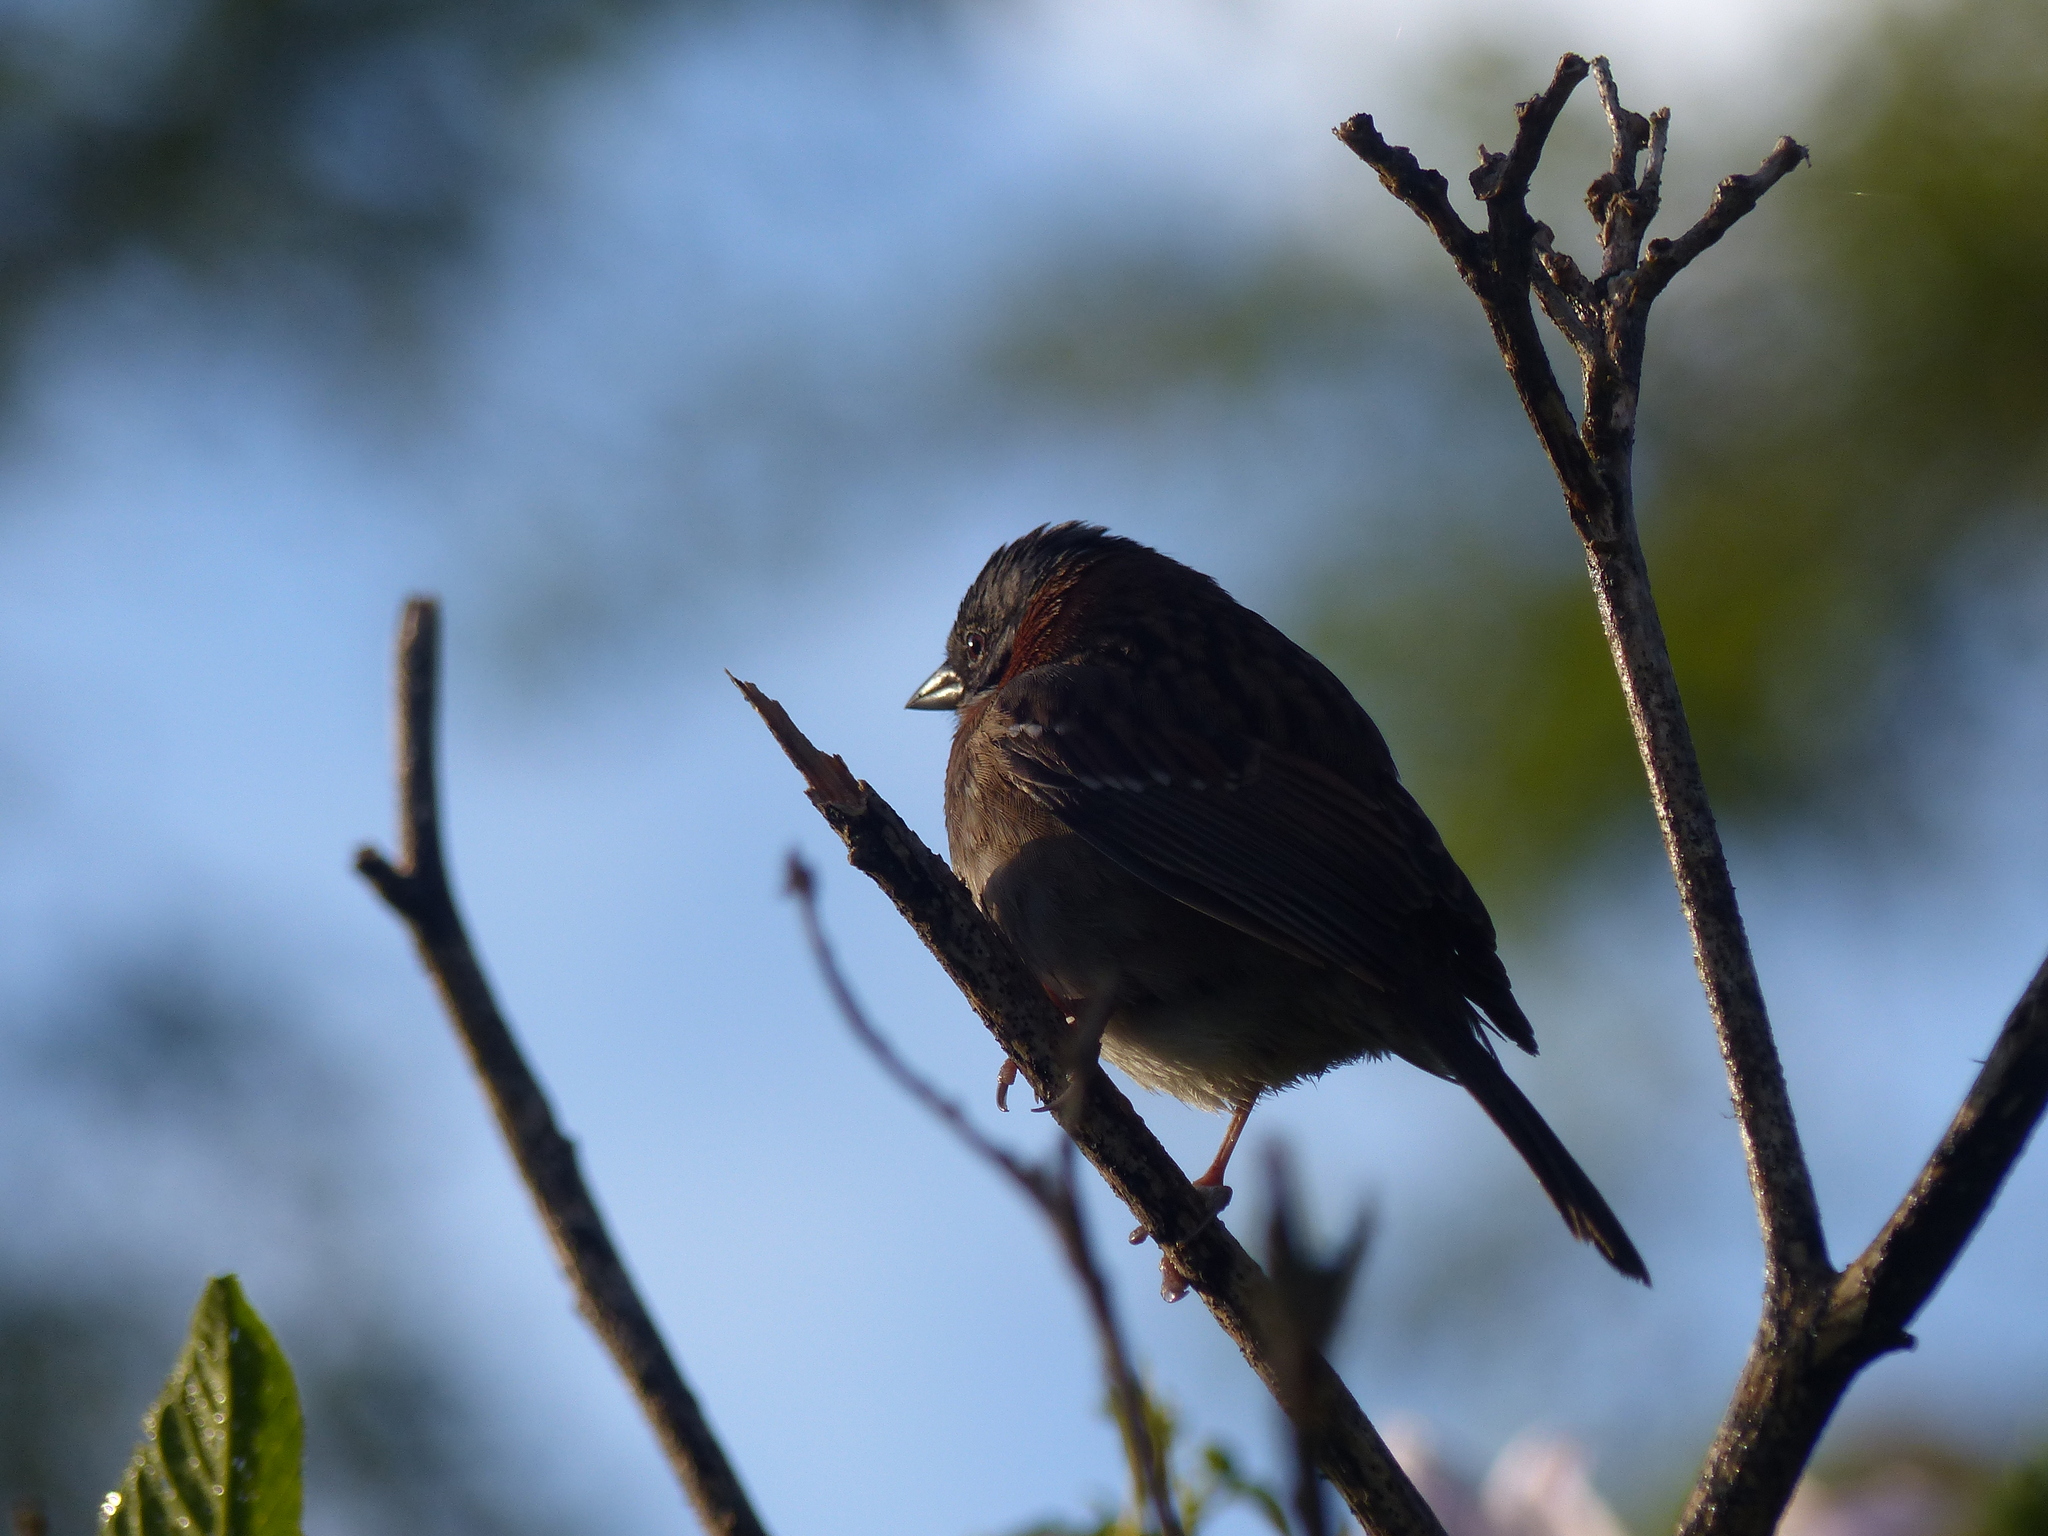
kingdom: Animalia
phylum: Chordata
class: Aves
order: Passeriformes
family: Passerellidae
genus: Zonotrichia
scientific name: Zonotrichia capensis
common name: Rufous-collared sparrow
